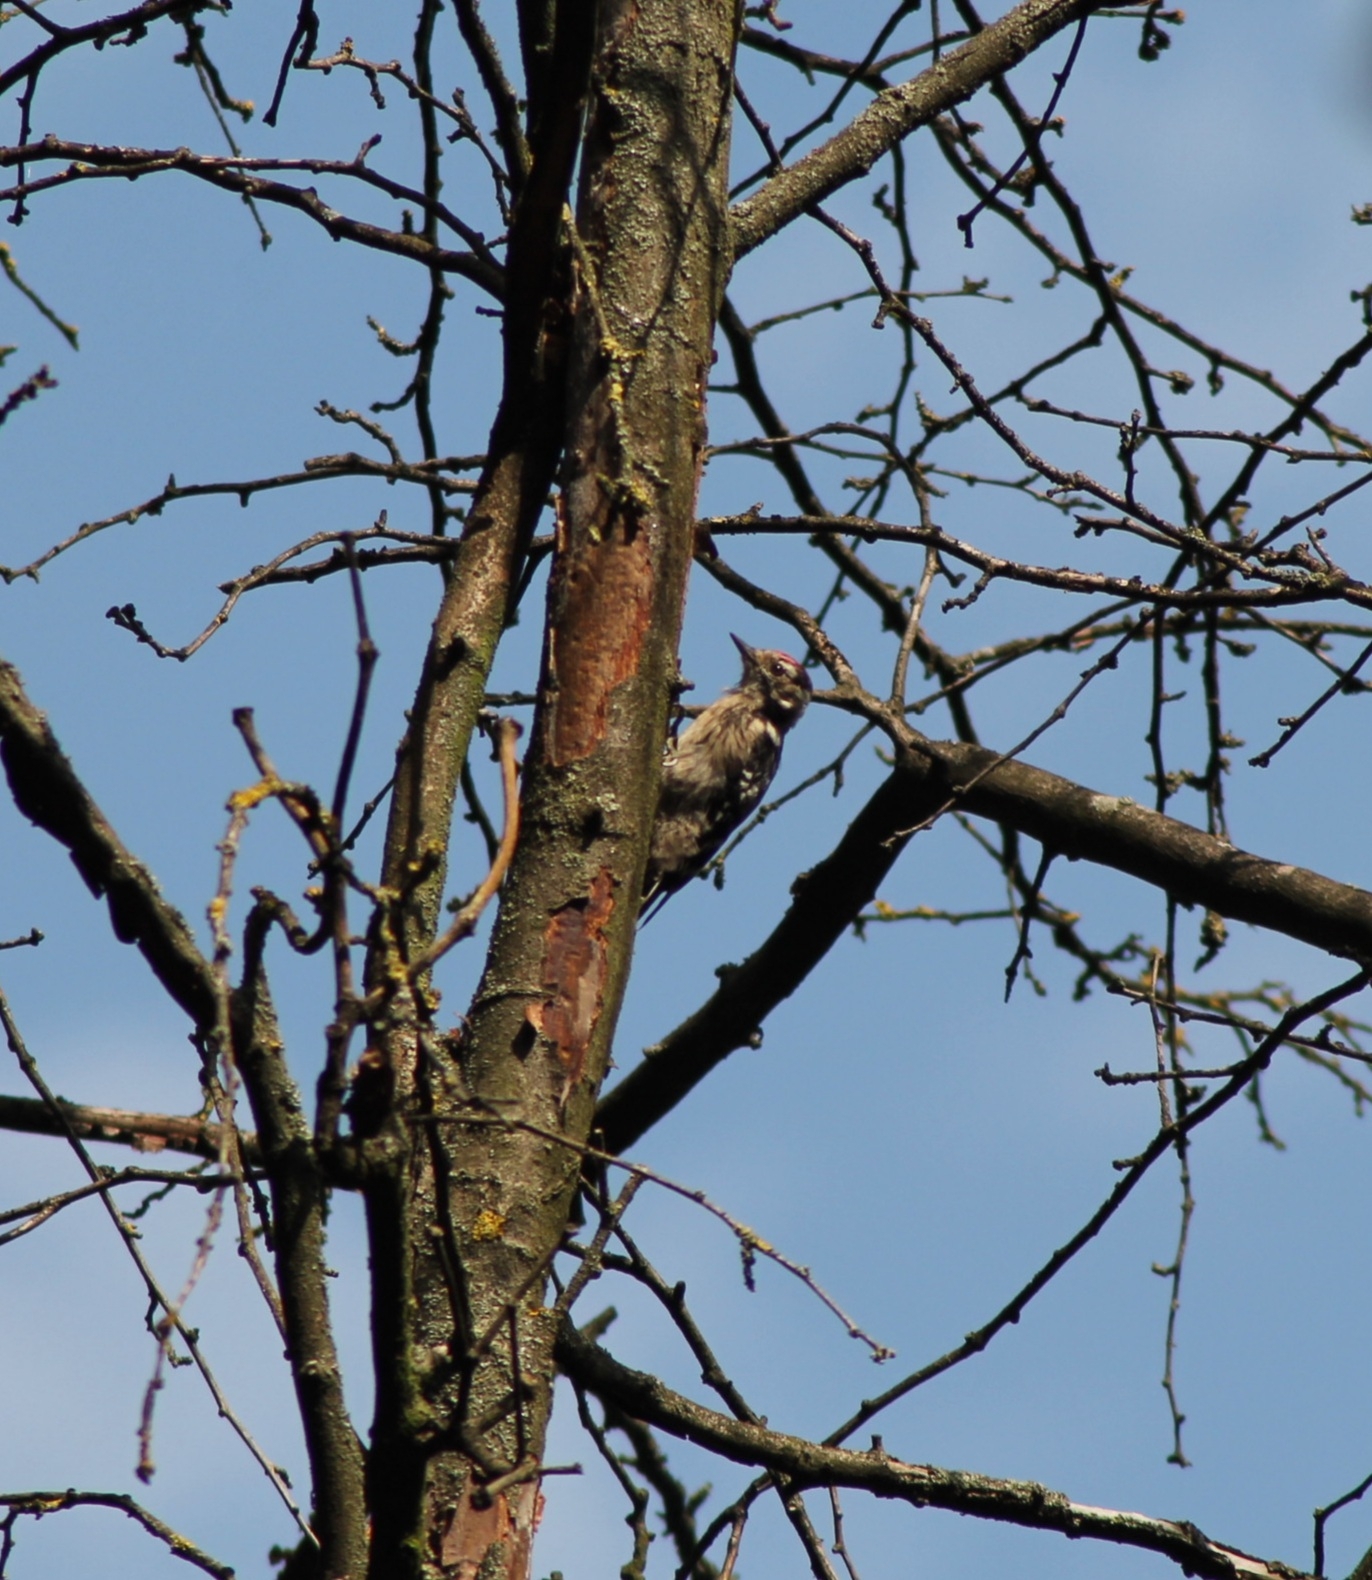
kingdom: Animalia
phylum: Chordata
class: Aves
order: Piciformes
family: Picidae
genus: Dryobates
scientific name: Dryobates minor
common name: Lesser spotted woodpecker
